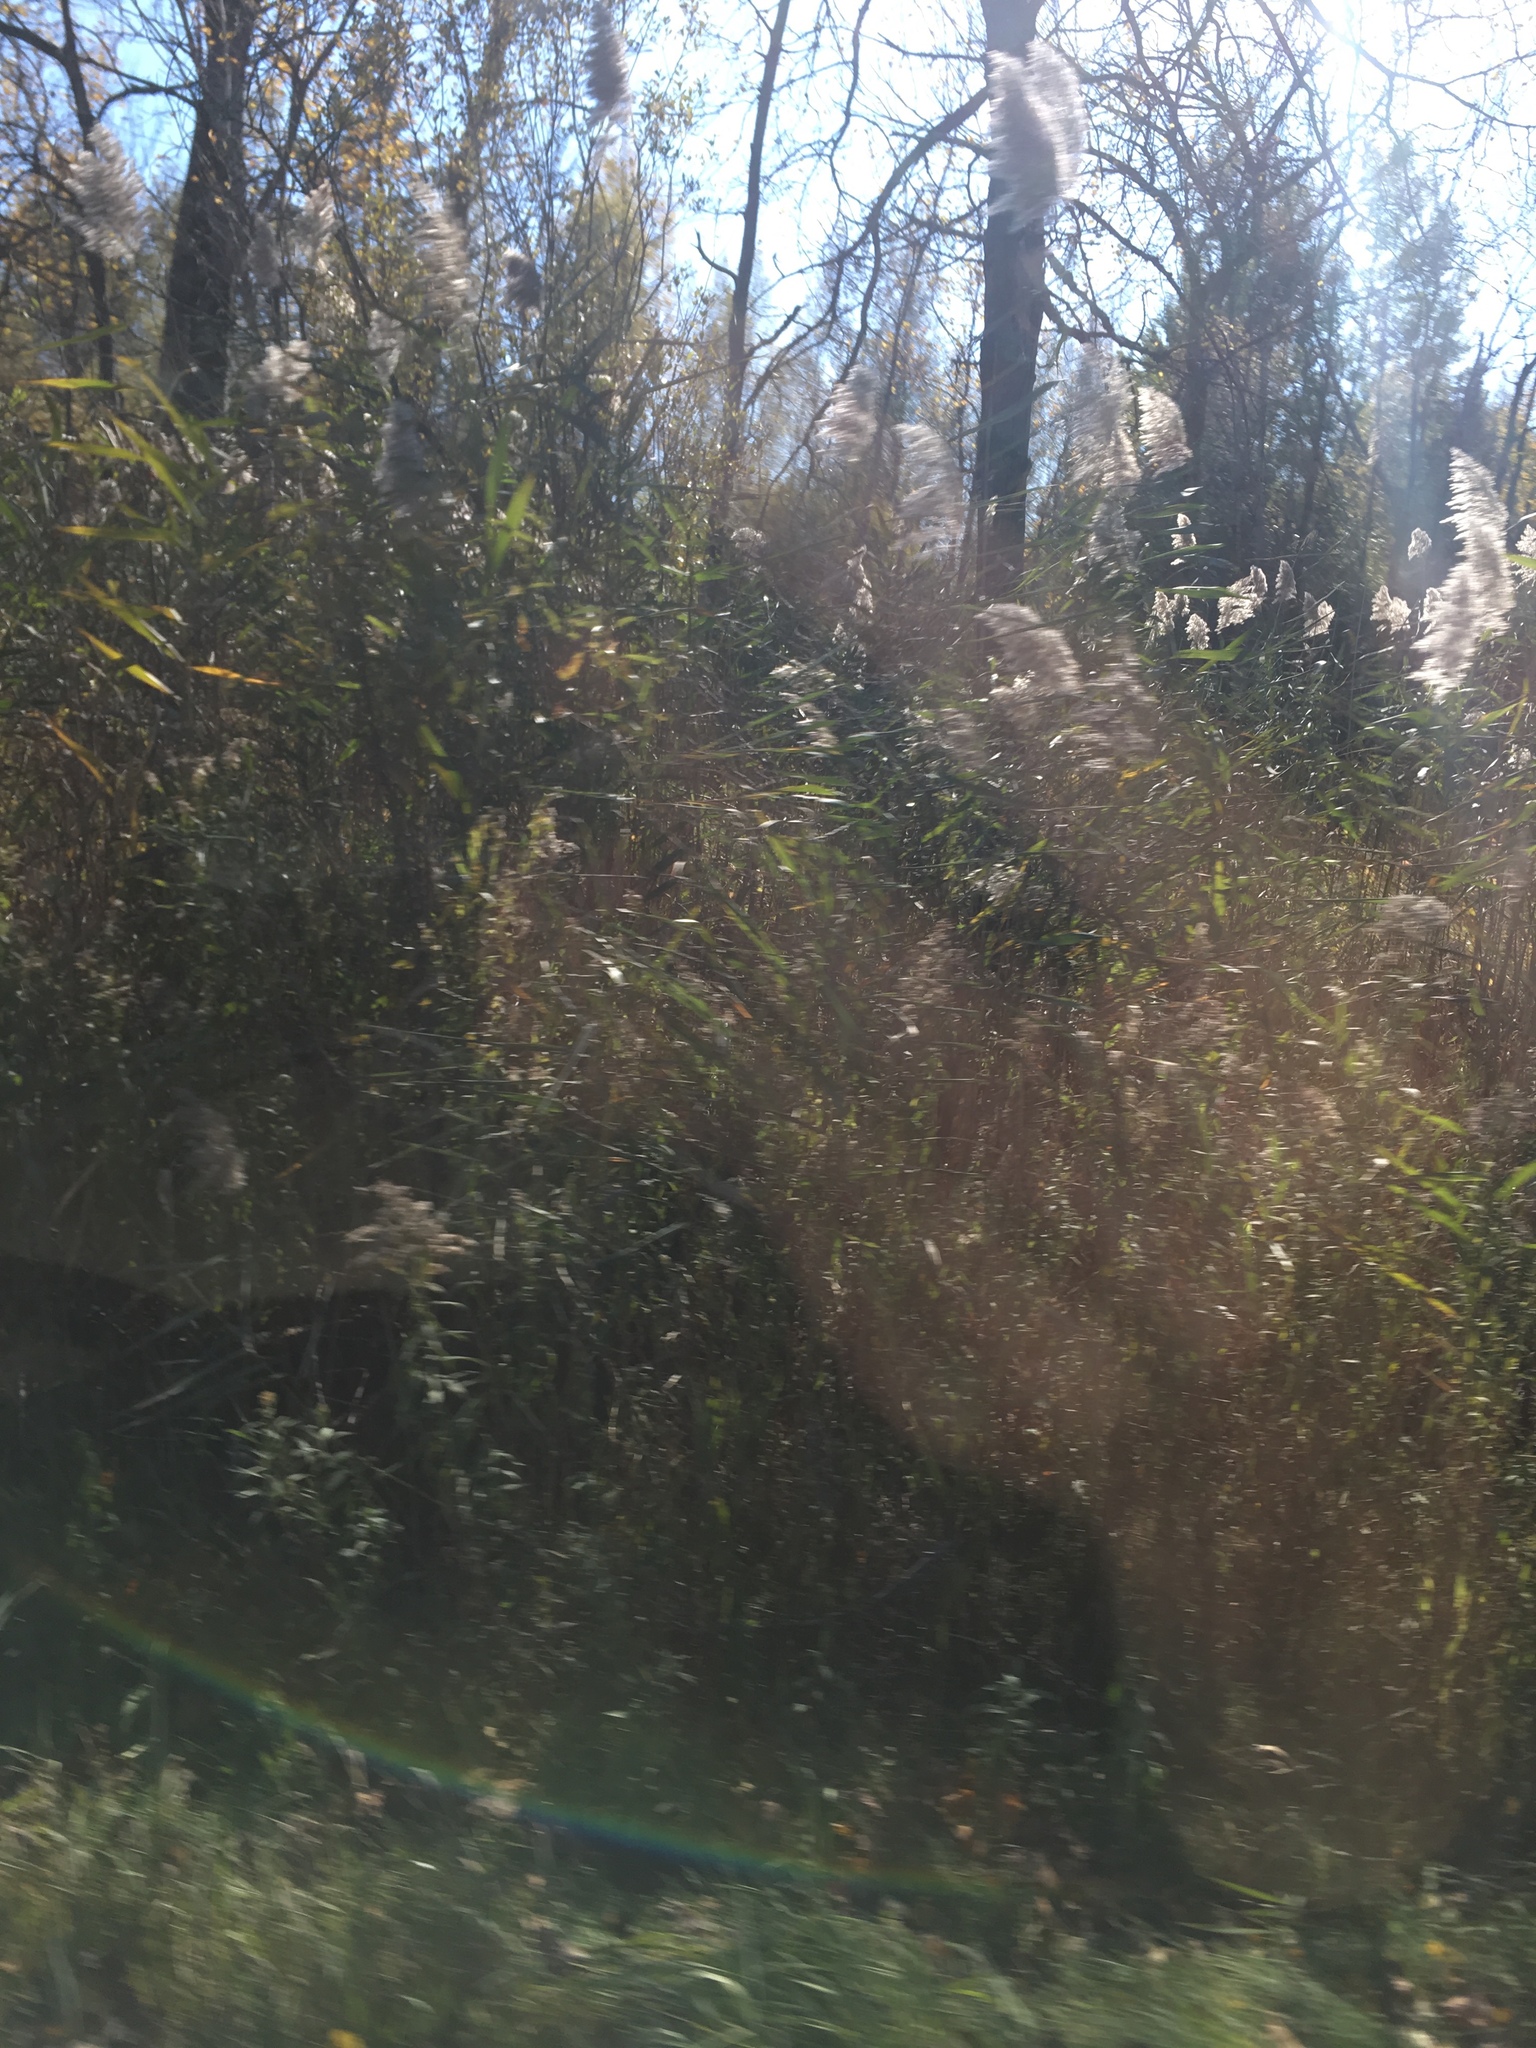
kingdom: Plantae
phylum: Tracheophyta
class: Liliopsida
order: Poales
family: Poaceae
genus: Phragmites
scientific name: Phragmites australis
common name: Common reed
